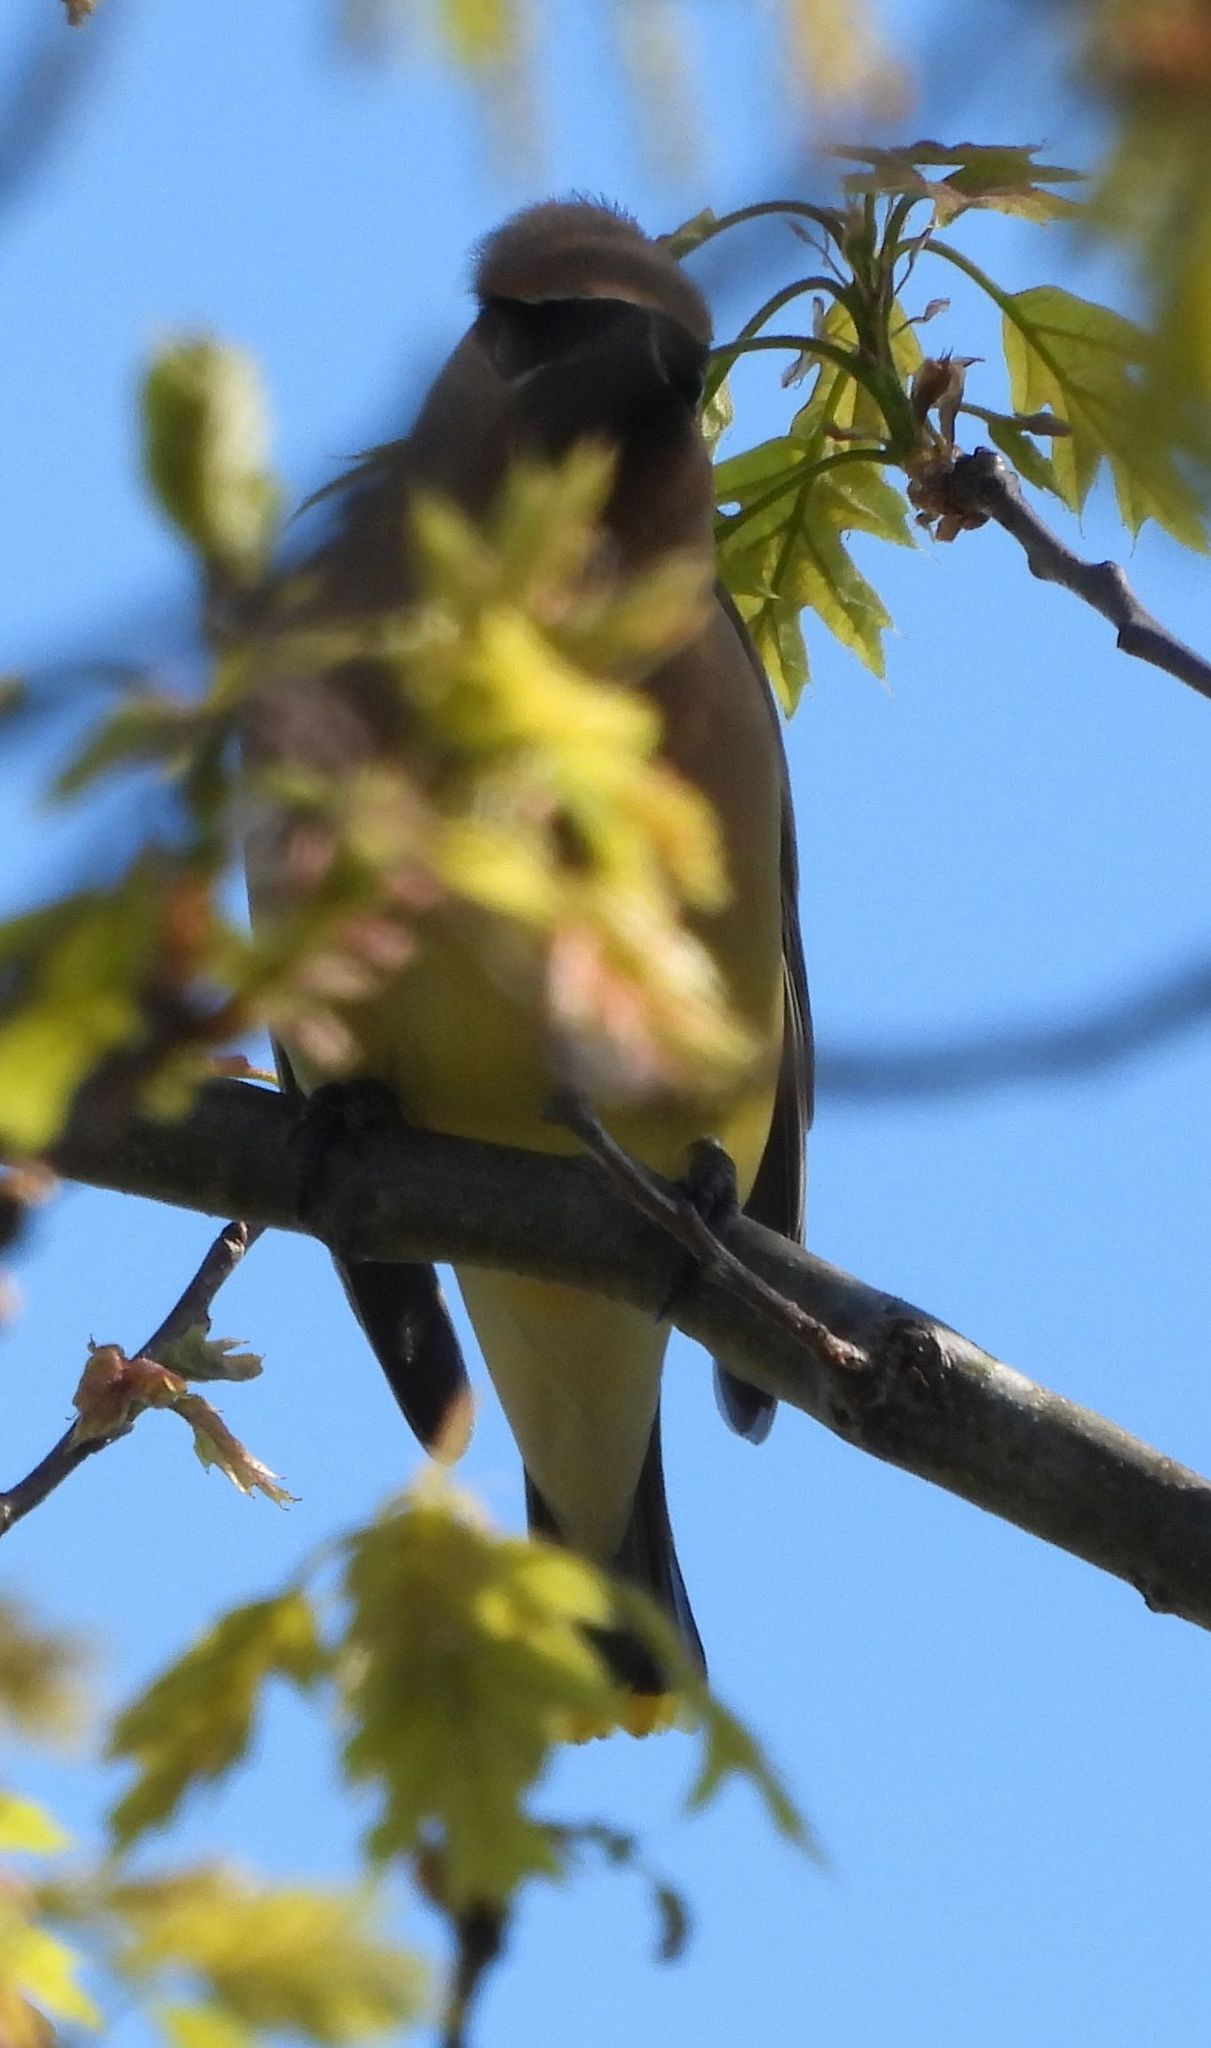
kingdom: Animalia
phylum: Chordata
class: Aves
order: Passeriformes
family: Bombycillidae
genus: Bombycilla
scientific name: Bombycilla cedrorum
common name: Cedar waxwing
